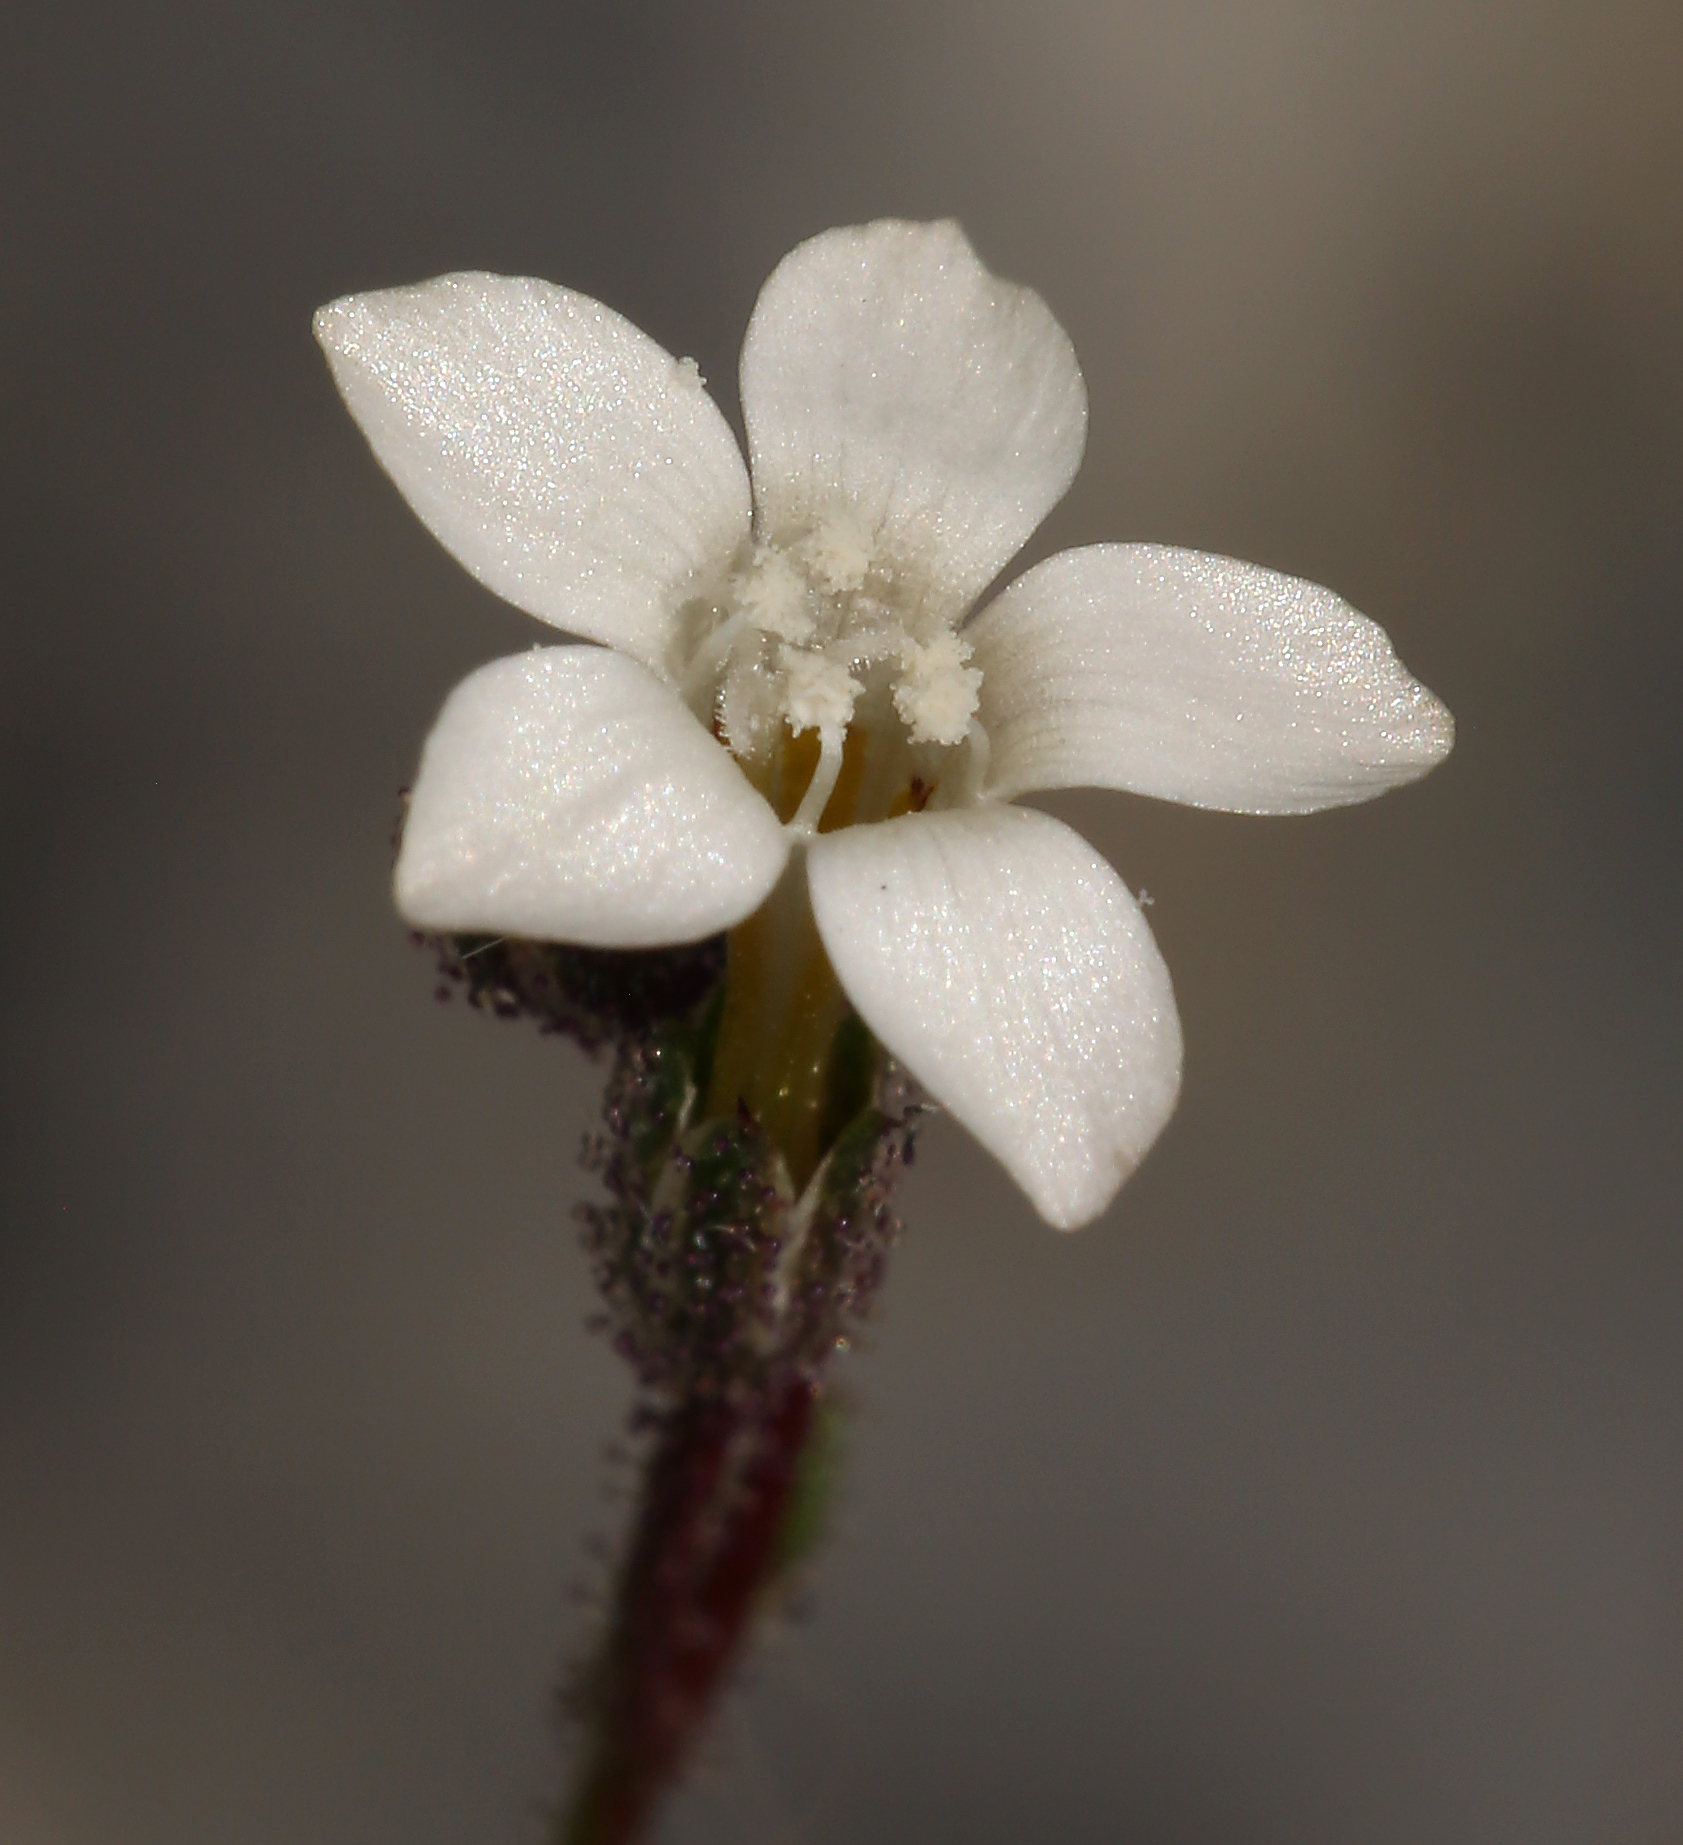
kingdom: Plantae
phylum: Tracheophyta
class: Magnoliopsida
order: Ericales
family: Polemoniaceae
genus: Gilia
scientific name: Gilia stellata
